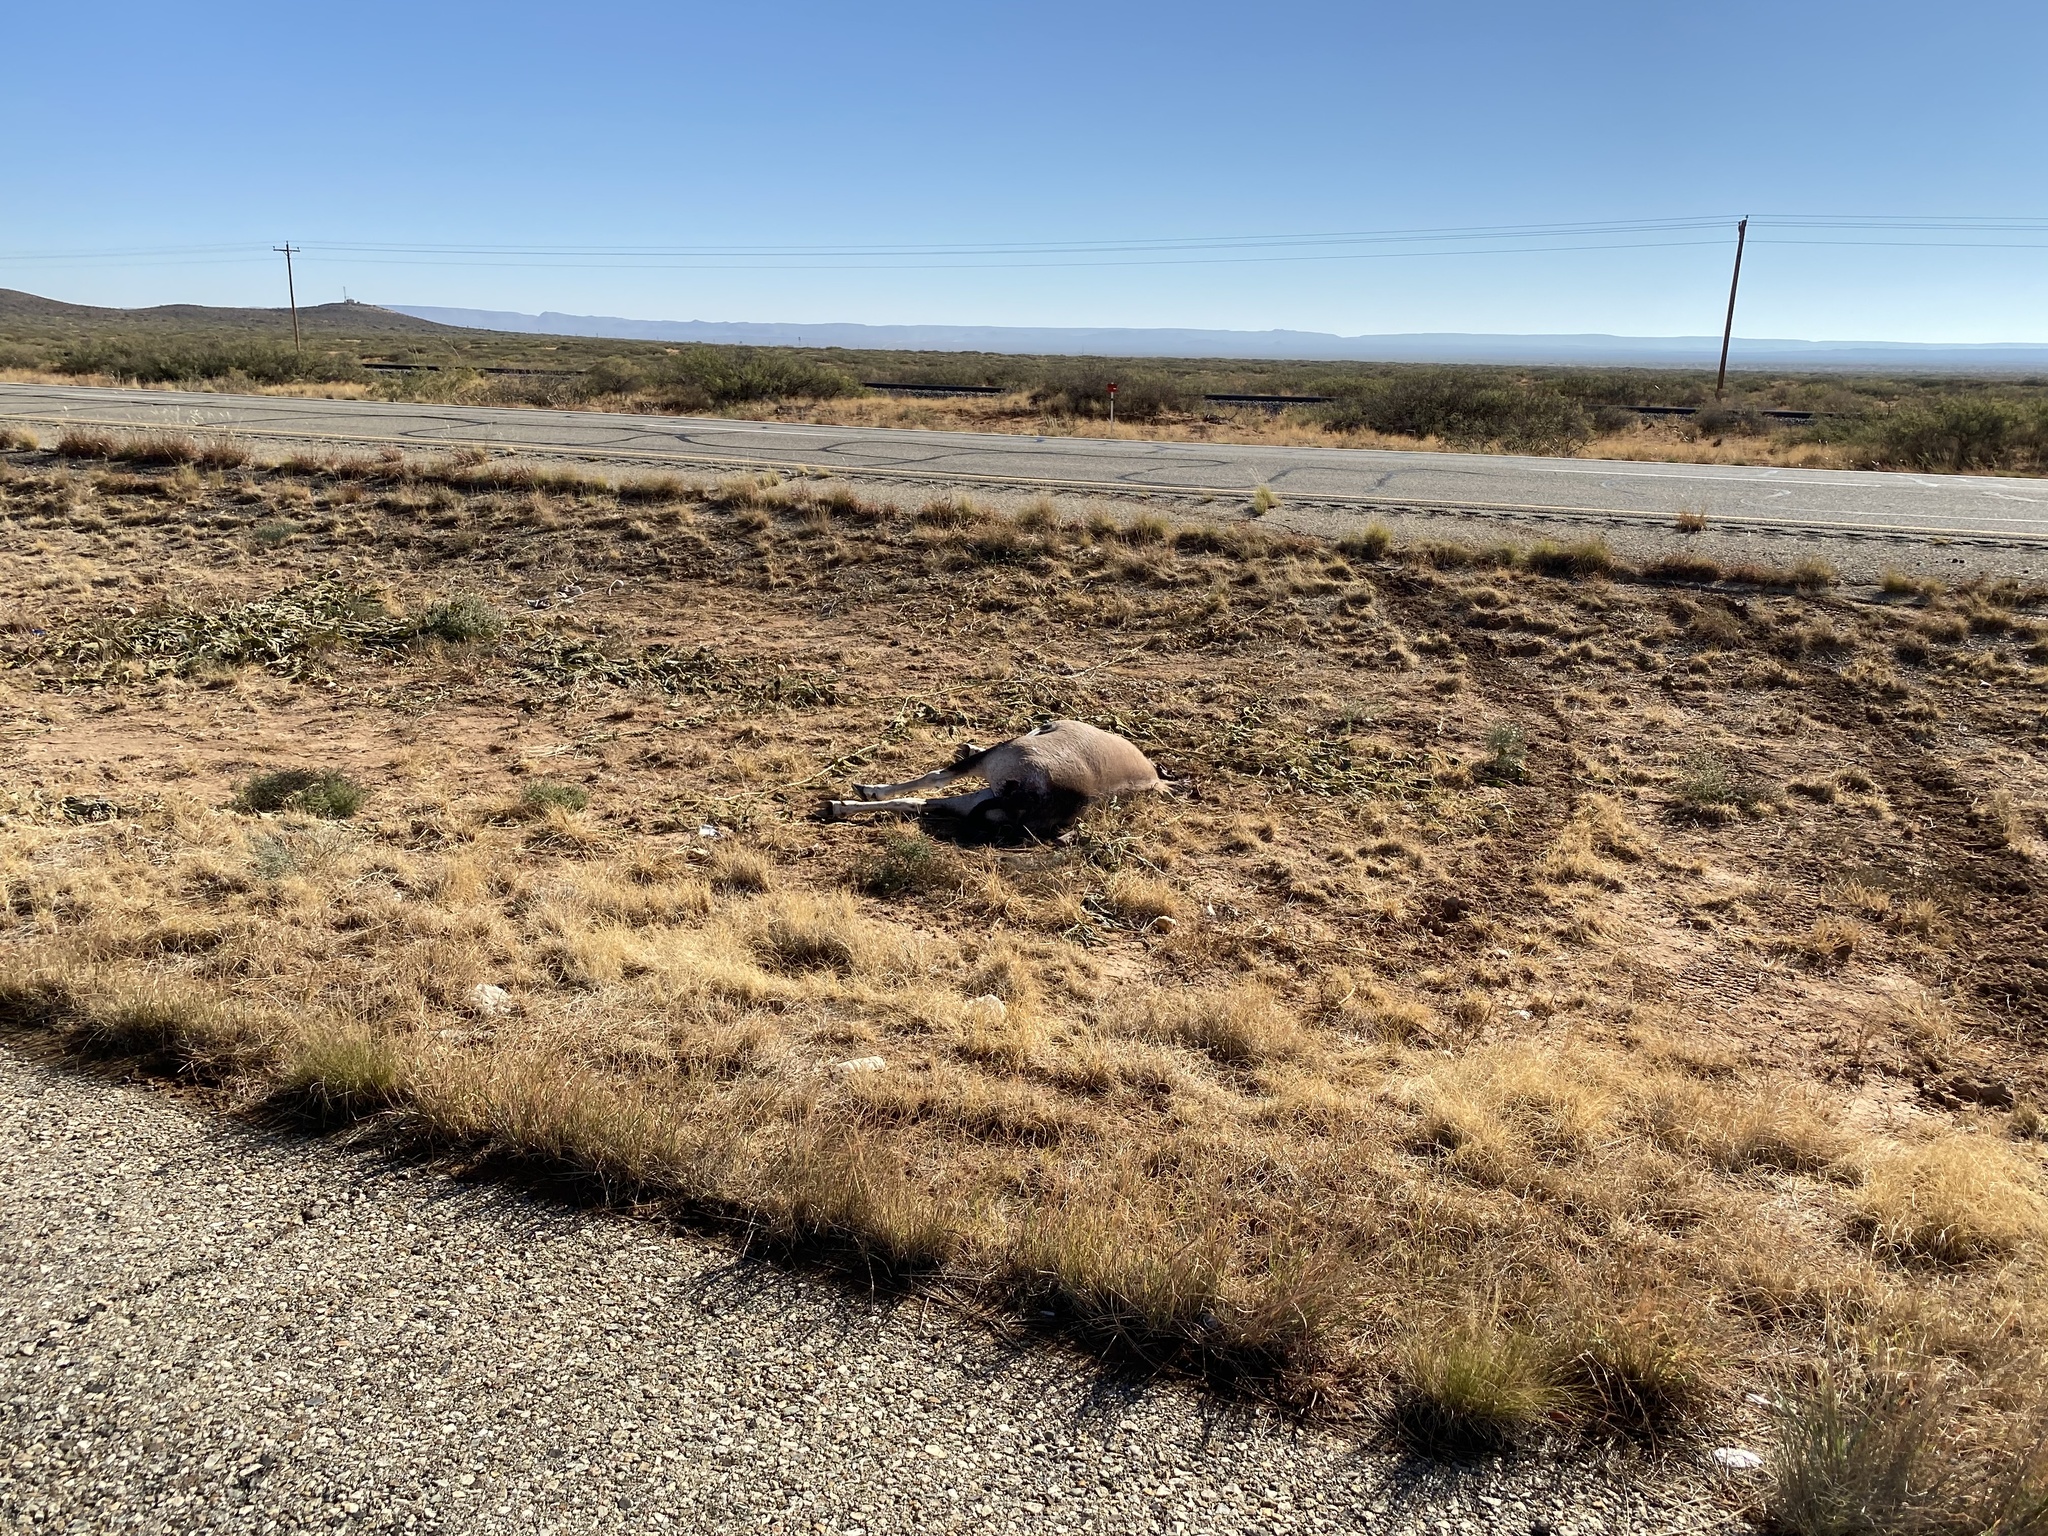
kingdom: Animalia
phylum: Chordata
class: Mammalia
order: Artiodactyla
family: Bovidae
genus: Oryx
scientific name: Oryx gazella
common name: Gemsbok
